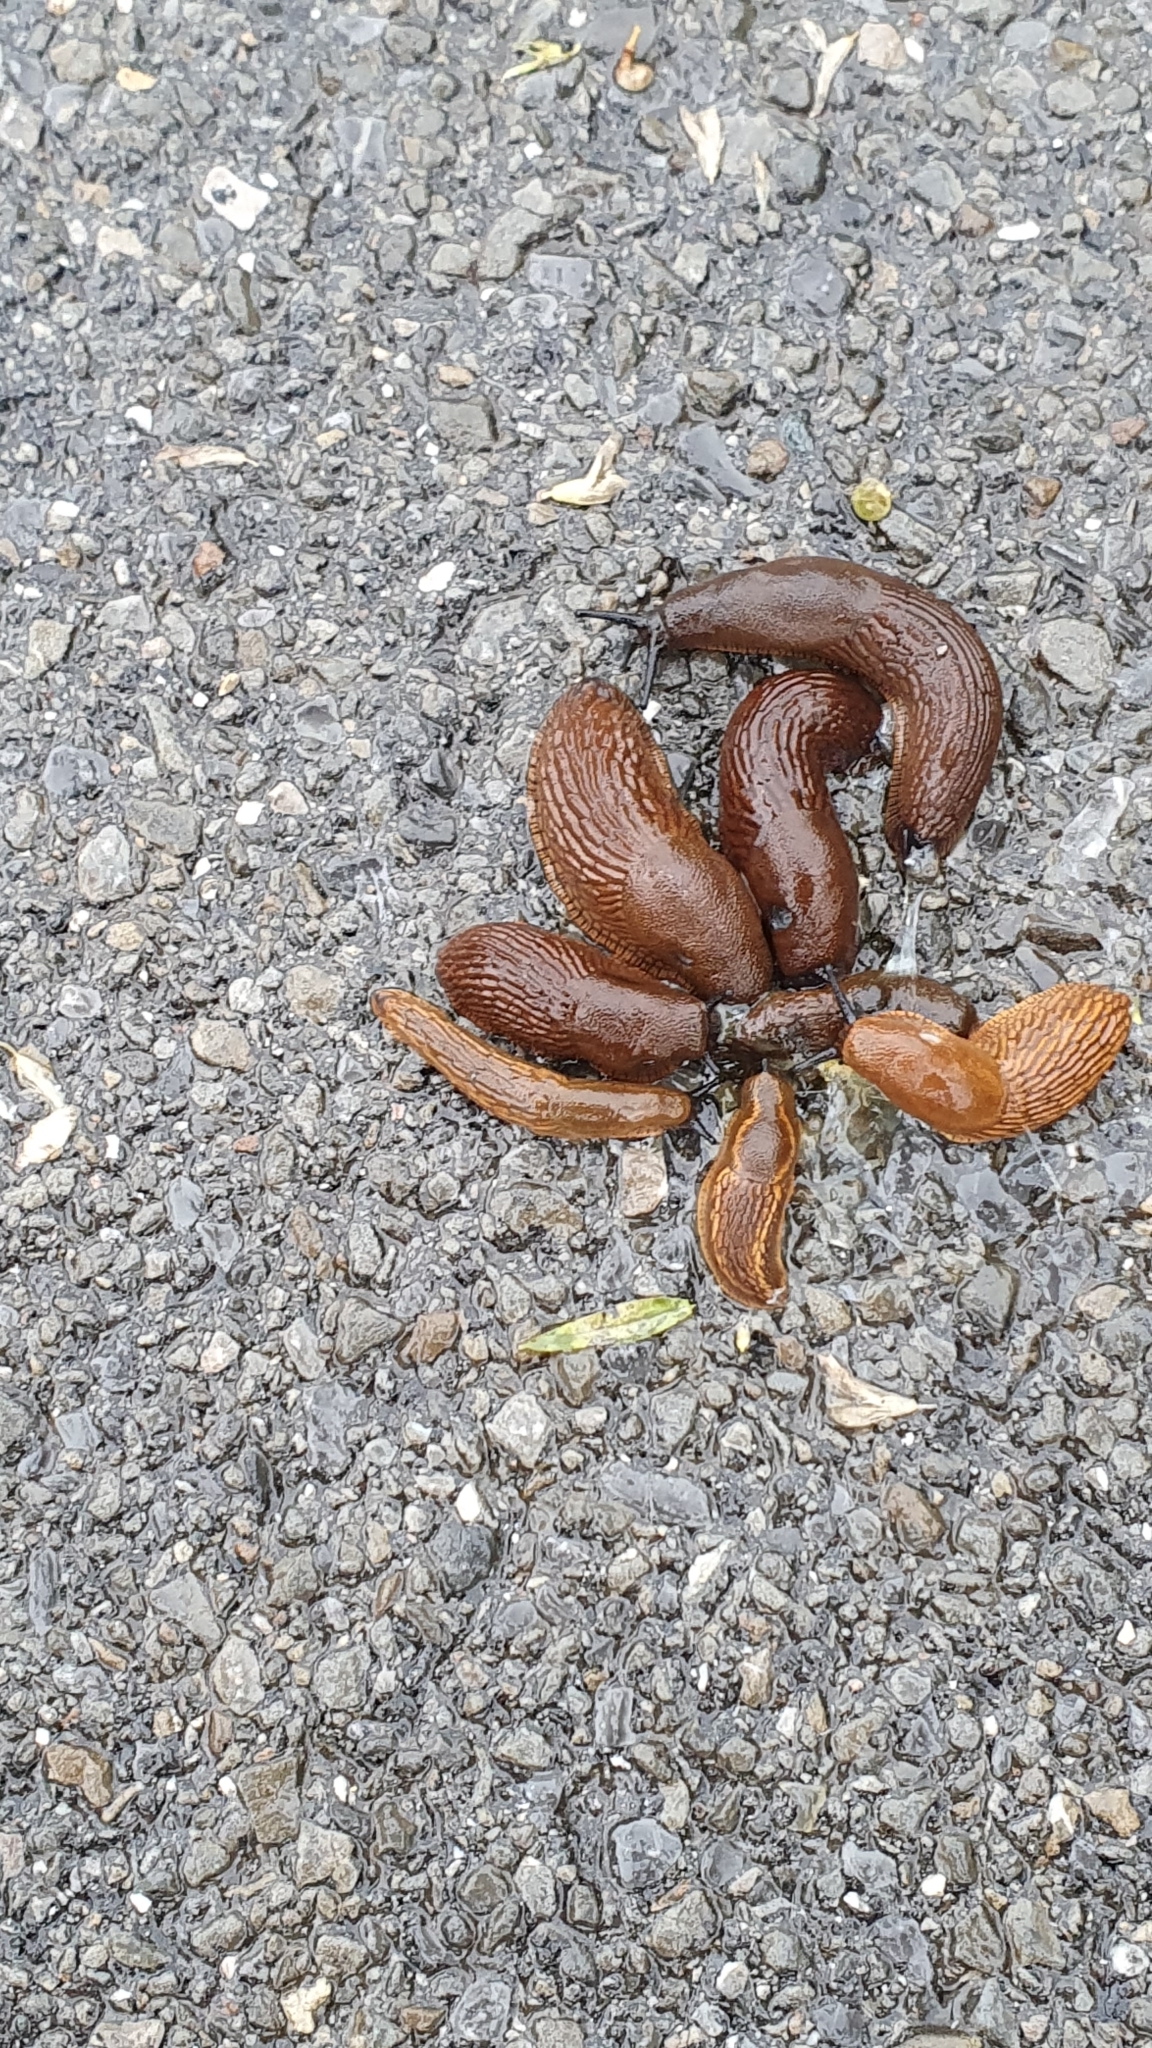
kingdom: Animalia
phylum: Mollusca
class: Gastropoda
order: Stylommatophora
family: Arionidae
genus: Arion
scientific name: Arion vulgaris
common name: Lusitanian slug
